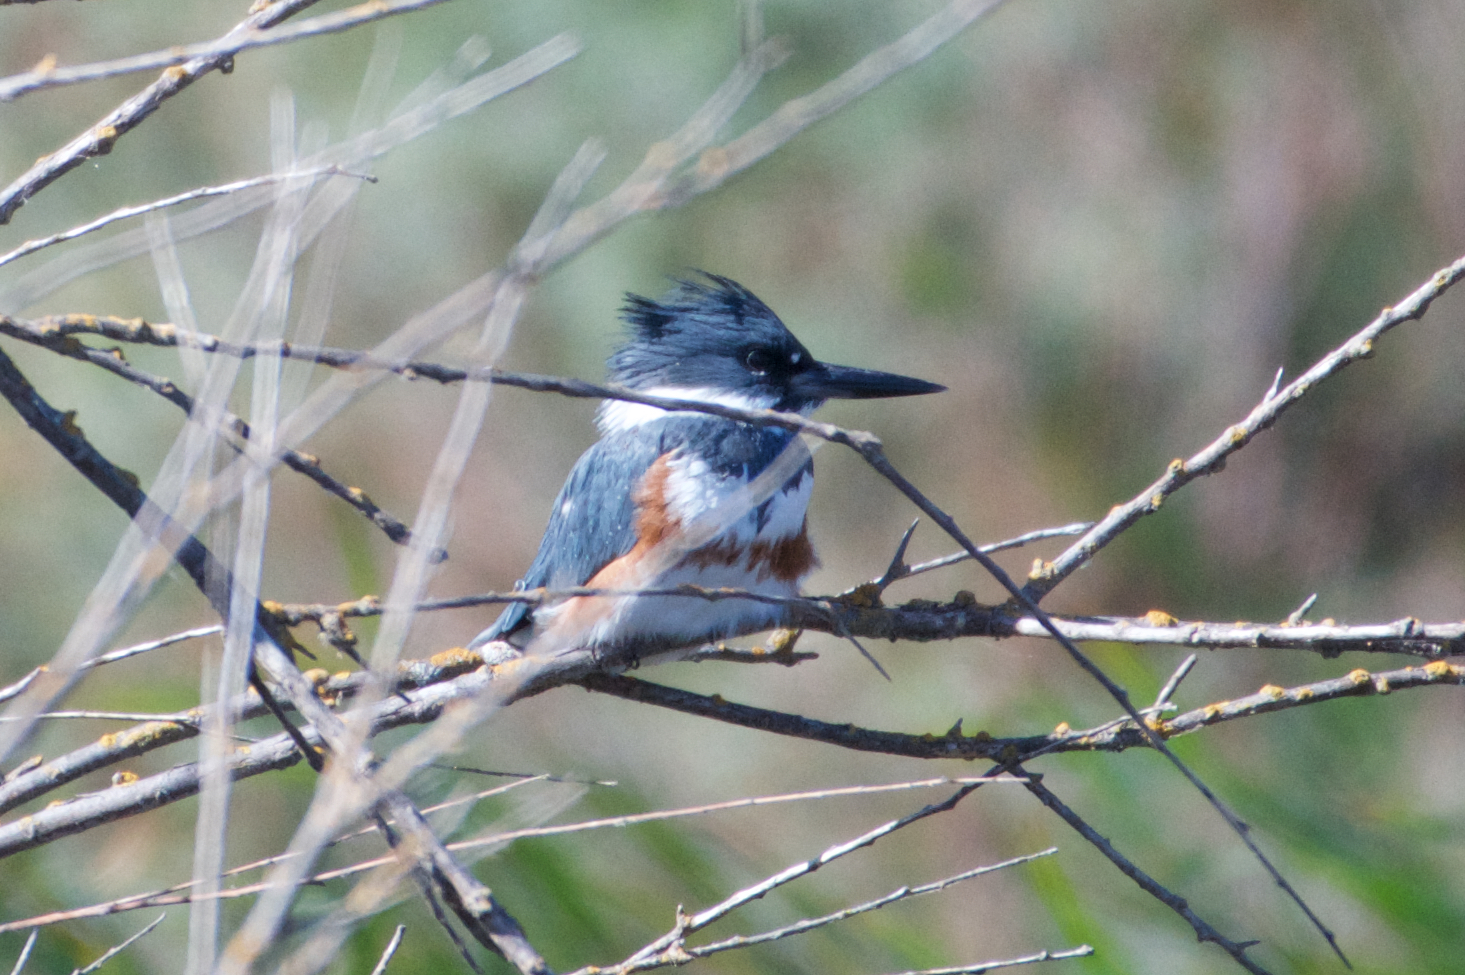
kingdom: Animalia
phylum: Chordata
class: Aves
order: Coraciiformes
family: Alcedinidae
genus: Megaceryle
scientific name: Megaceryle alcyon
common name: Belted kingfisher
